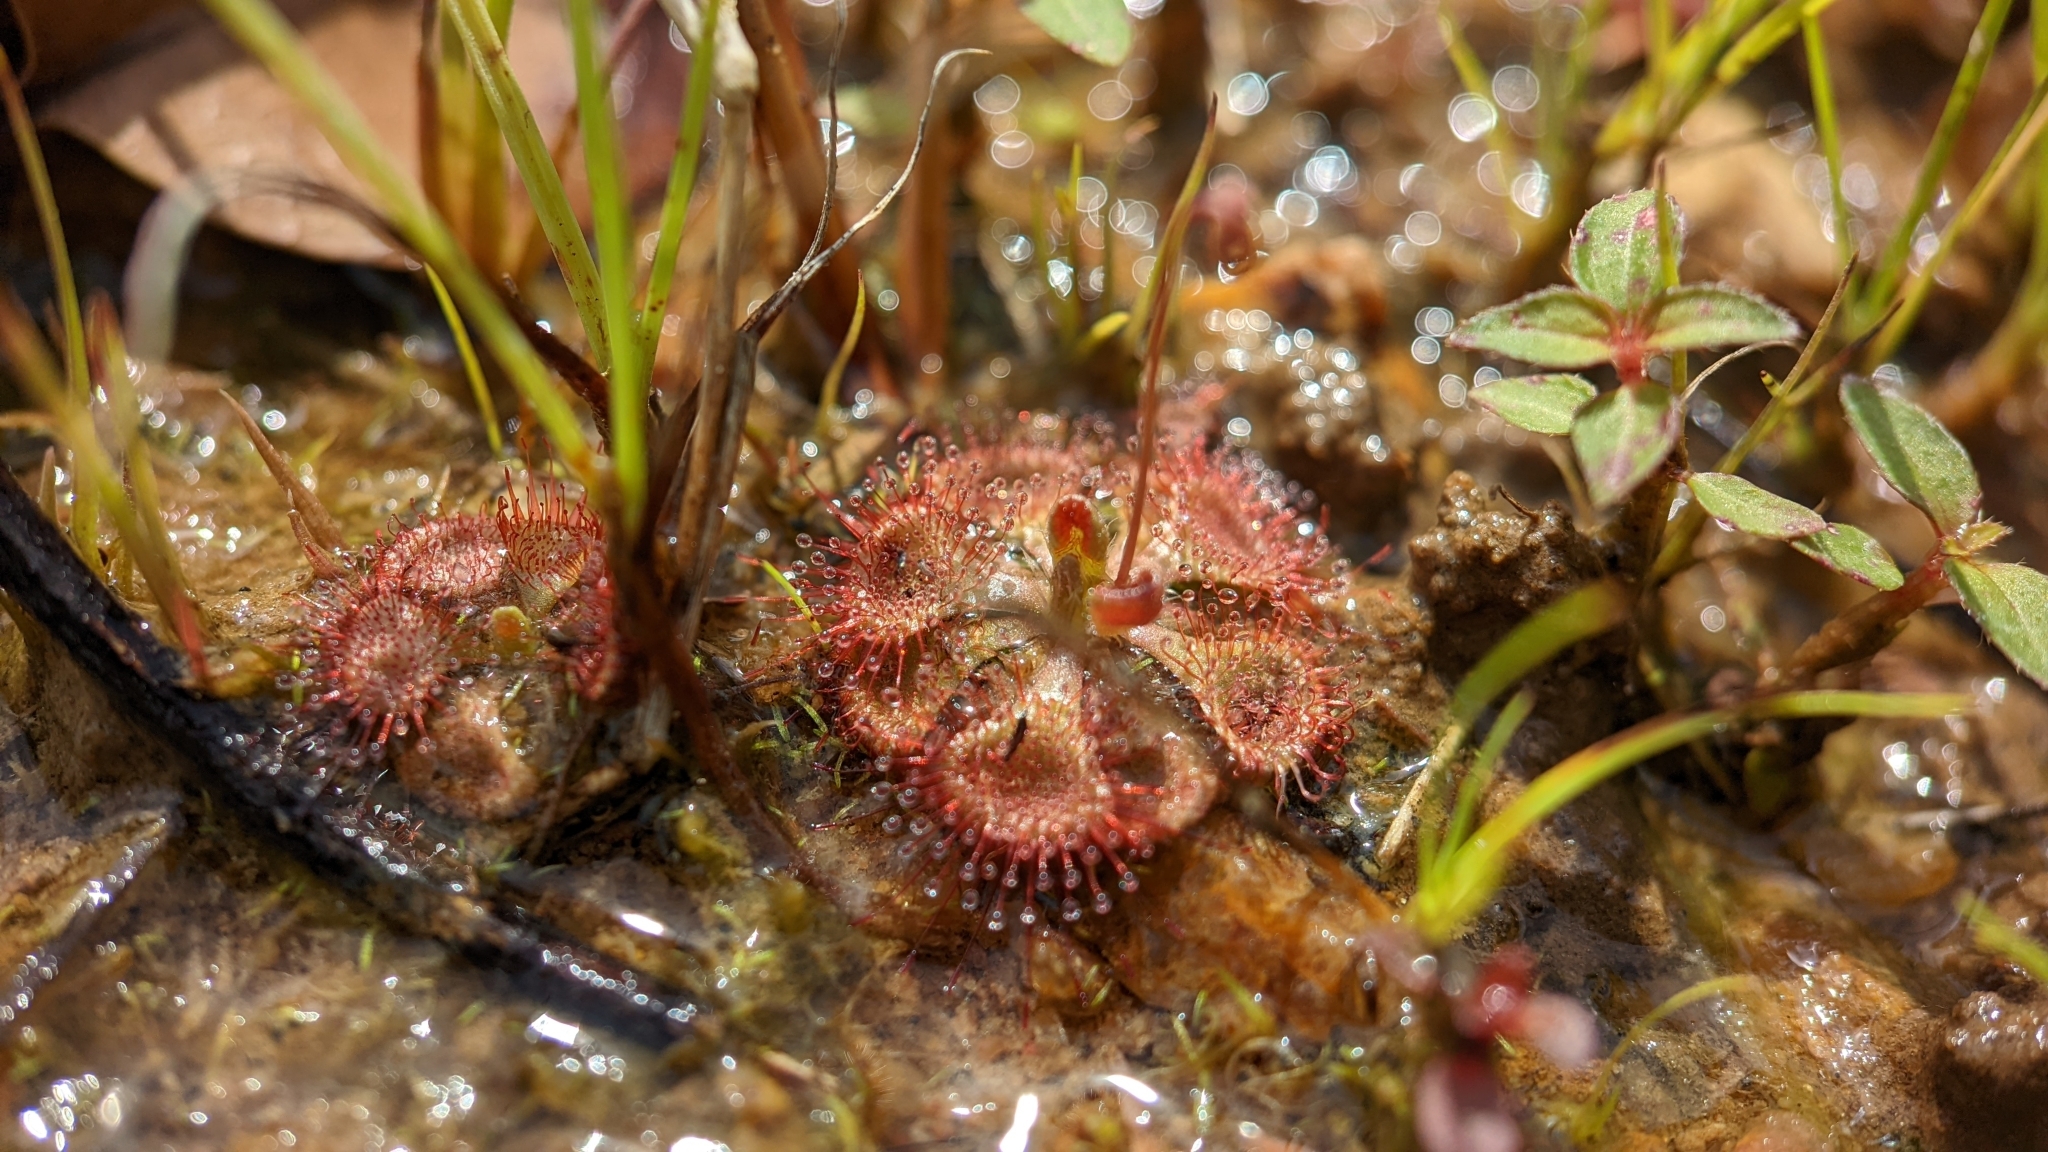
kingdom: Plantae
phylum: Tracheophyta
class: Magnoliopsida
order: Caryophyllales
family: Droseraceae
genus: Drosera
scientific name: Drosera spatulata
